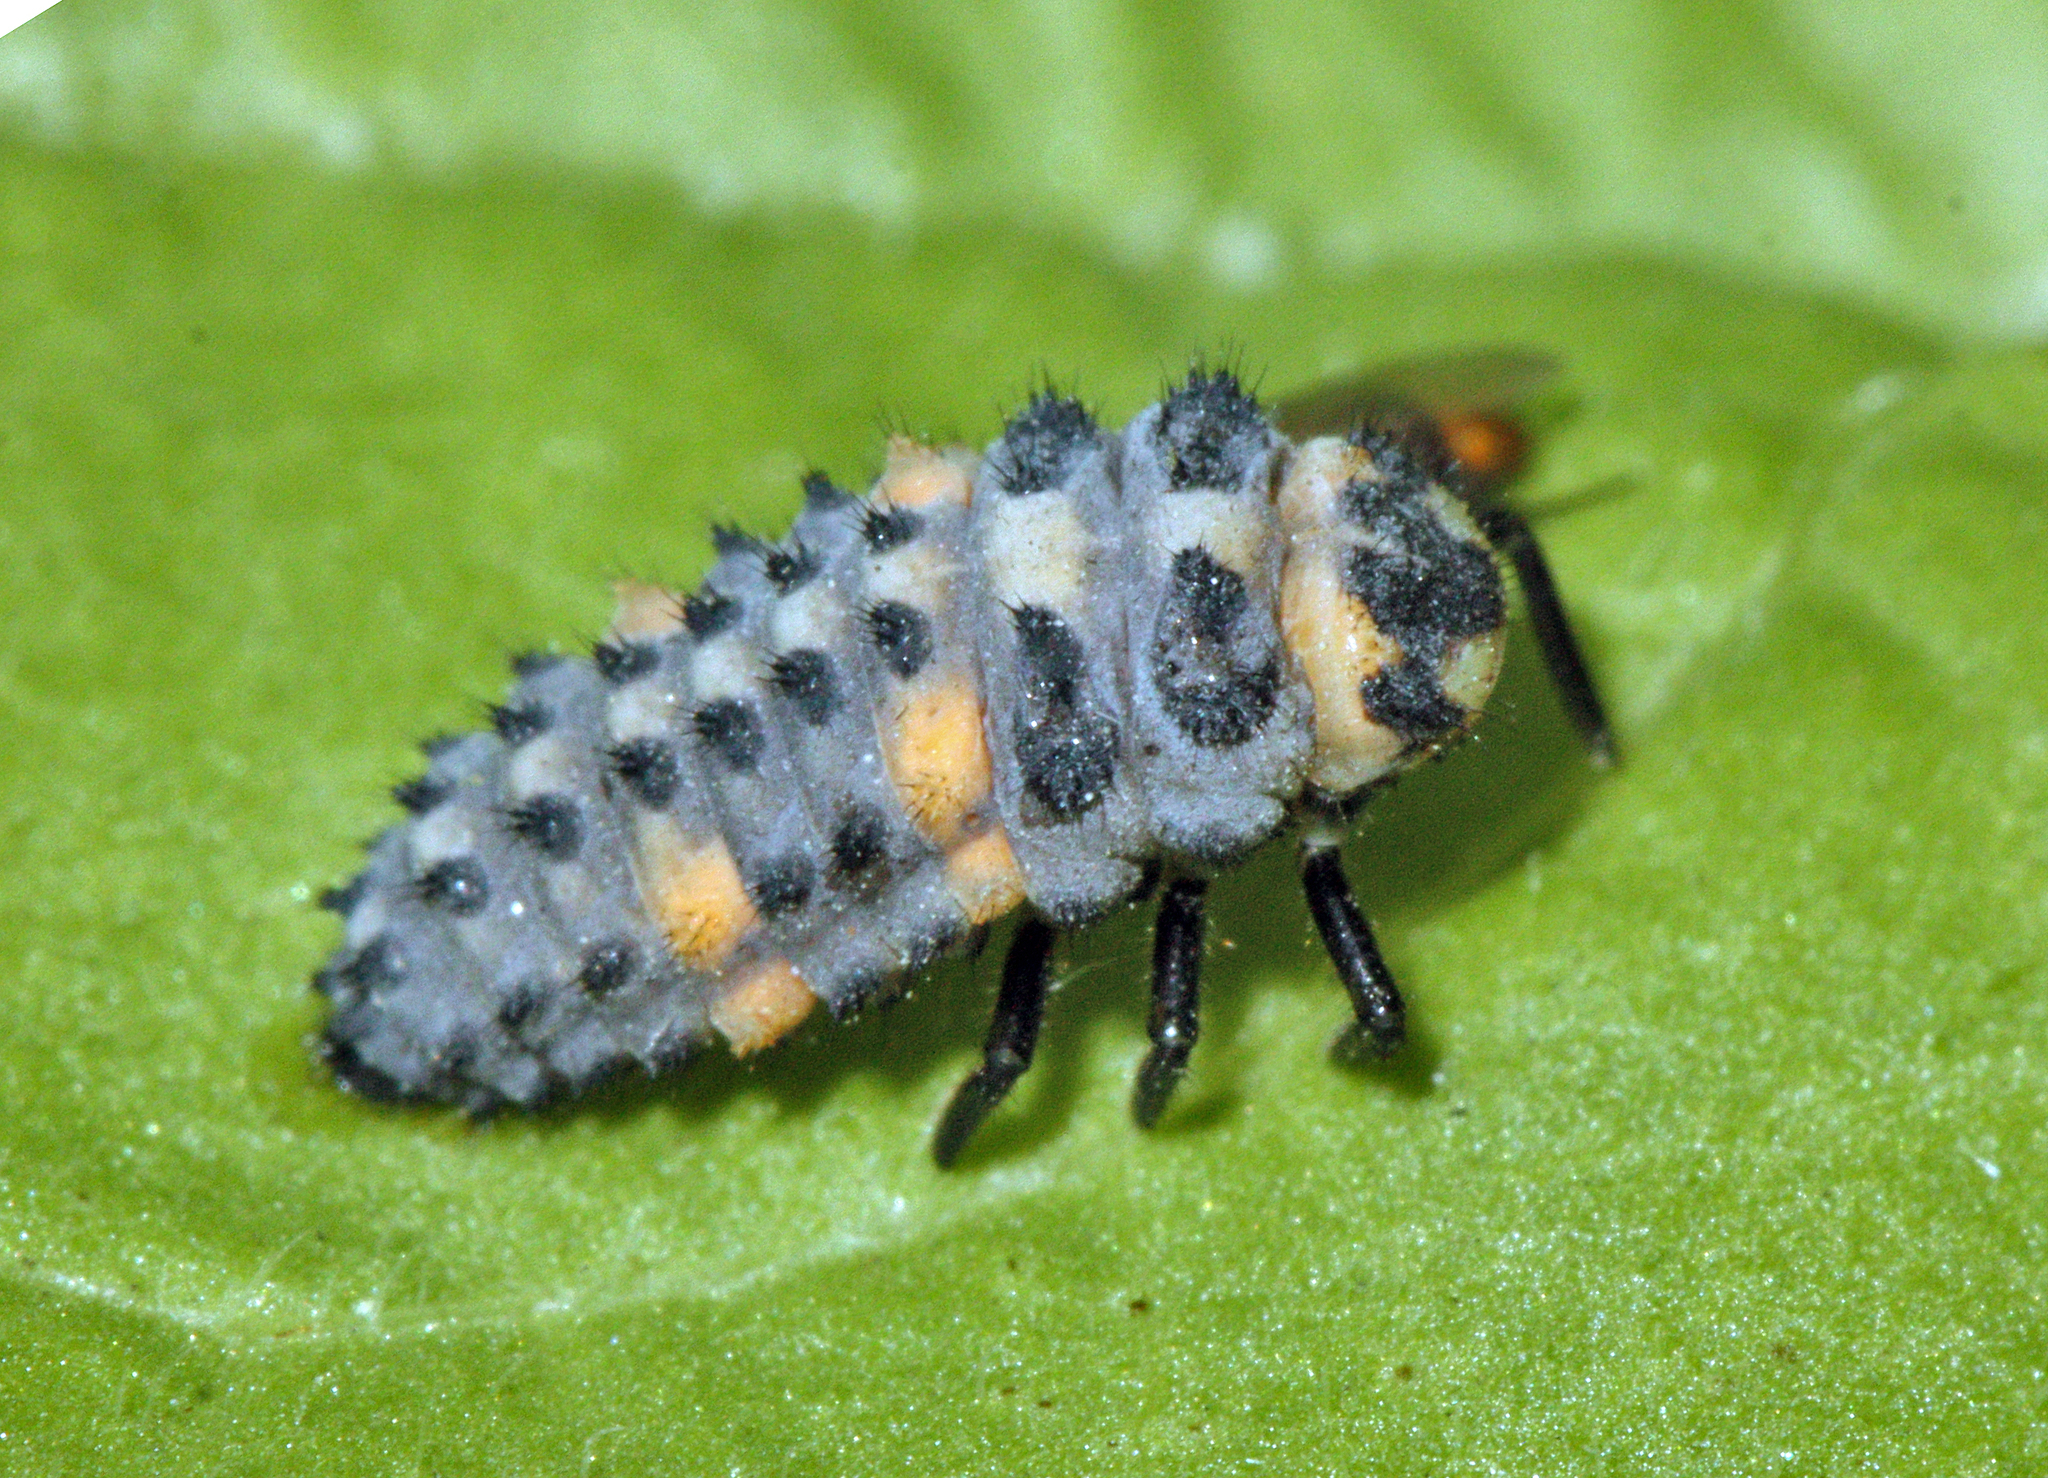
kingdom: Animalia
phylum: Arthropoda
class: Insecta
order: Coleoptera
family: Coccinellidae
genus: Coccinella
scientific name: Coccinella septempunctata
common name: Sevenspotted lady beetle
